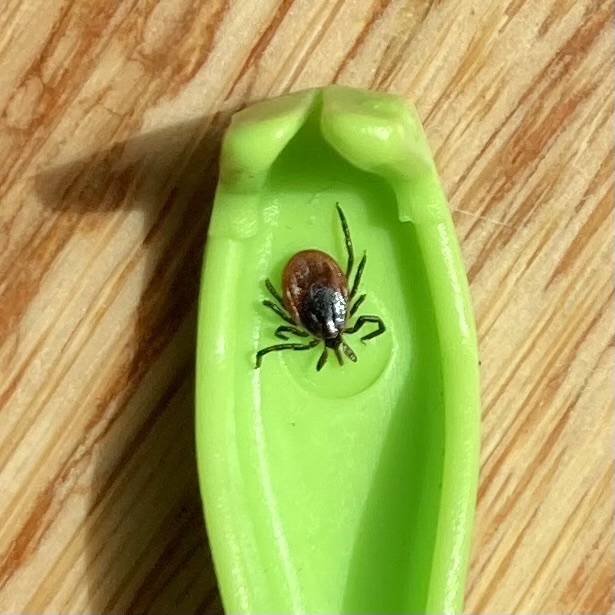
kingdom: Animalia
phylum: Arthropoda
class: Arachnida
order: Ixodida
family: Ixodidae
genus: Ixodes
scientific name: Ixodes scapularis
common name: Black legged tick
